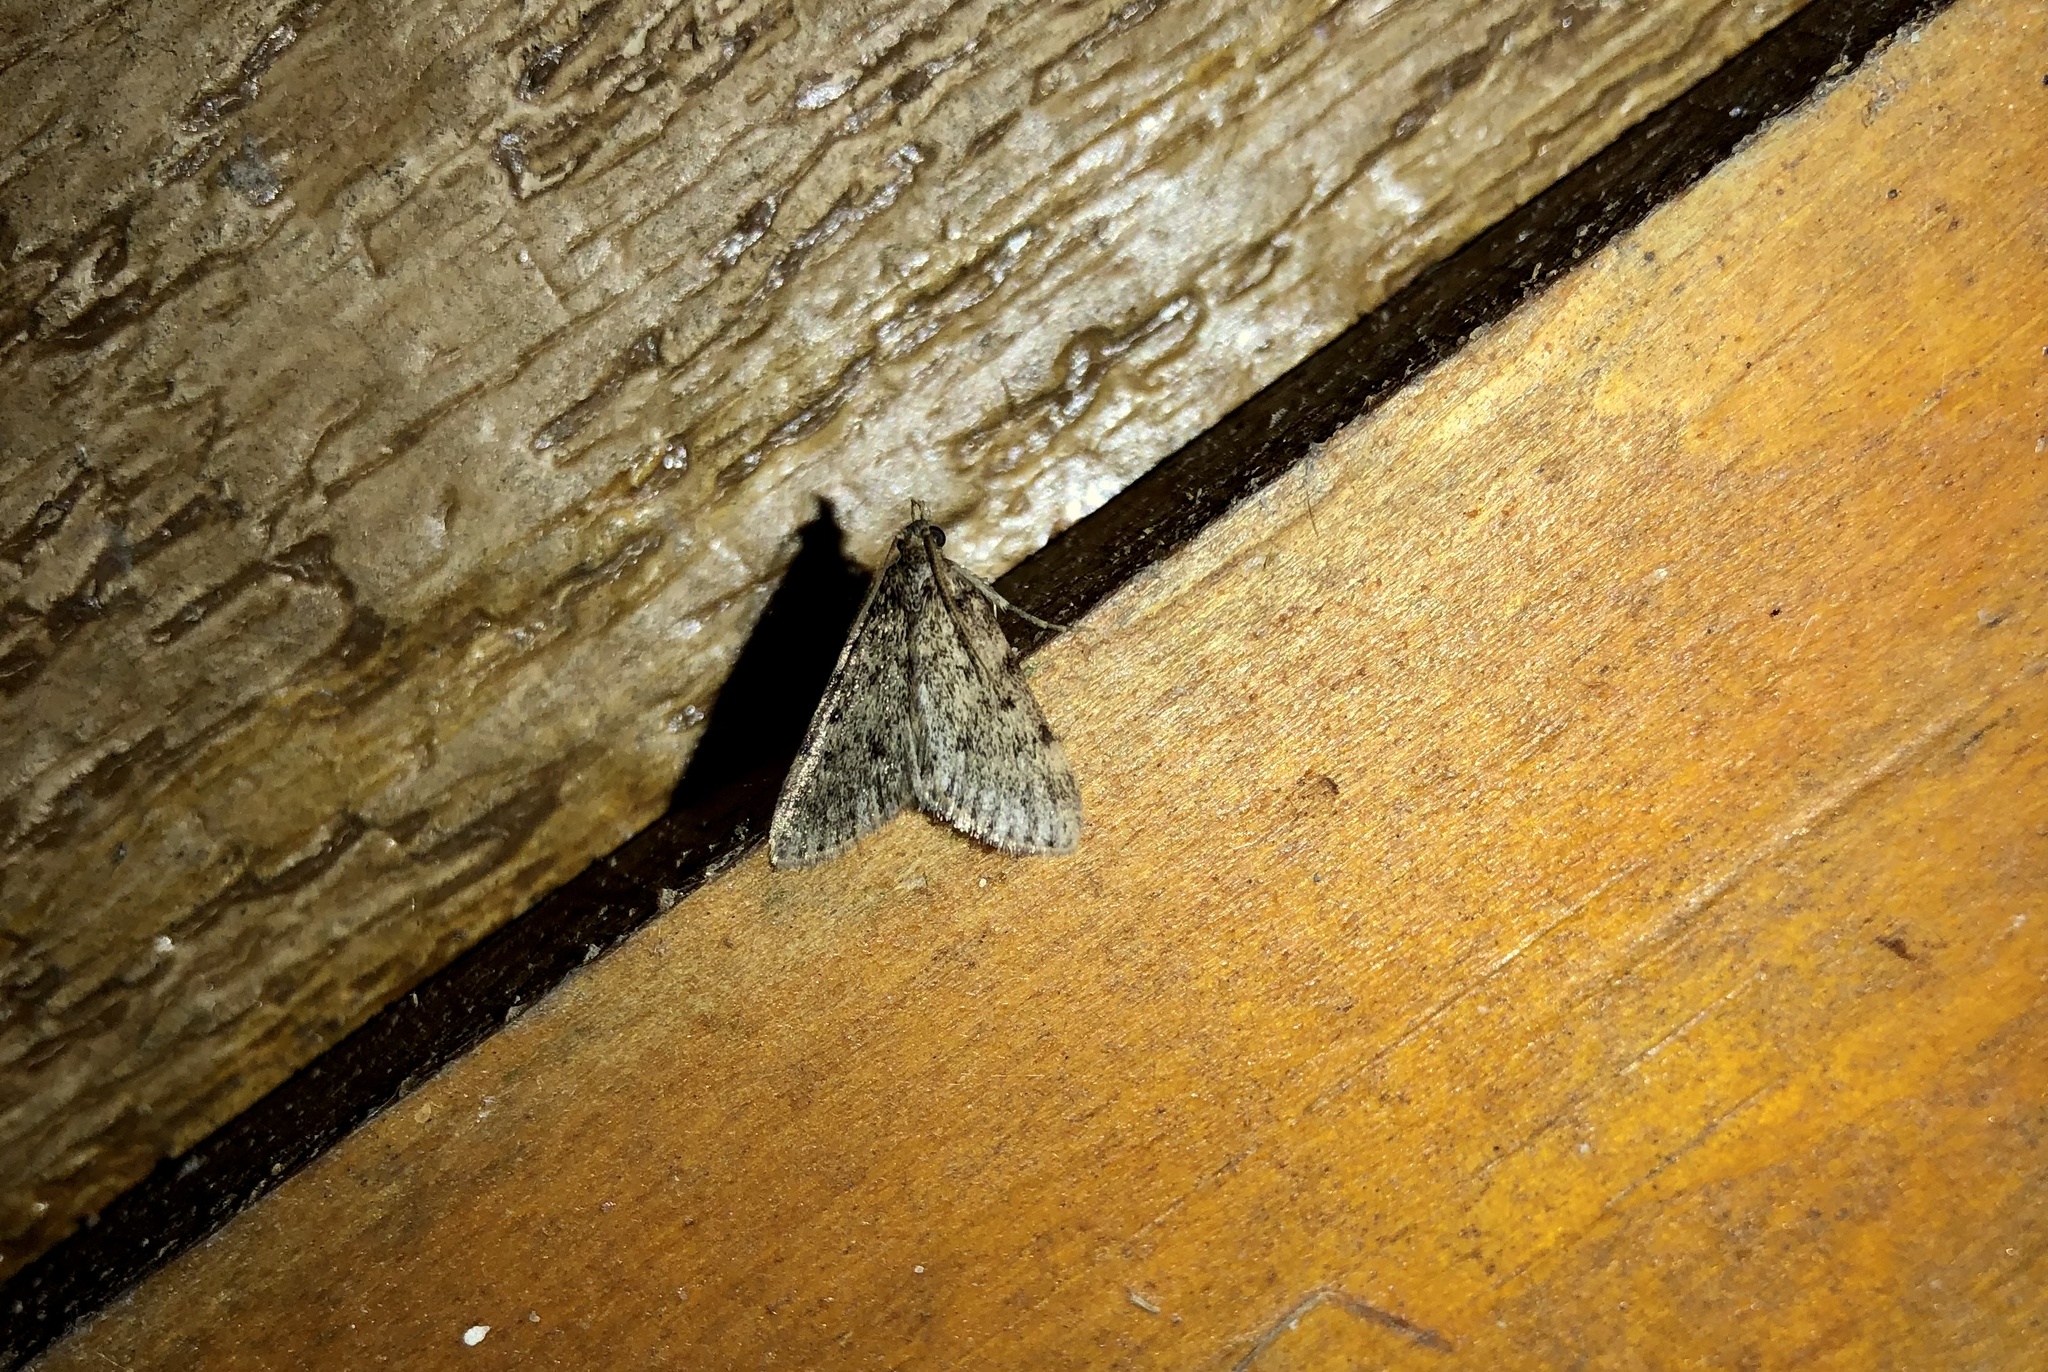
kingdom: Animalia
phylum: Arthropoda
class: Insecta
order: Lepidoptera
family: Pyralidae
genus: Aglossa
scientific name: Aglossa pinguinalis
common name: Large tabby
